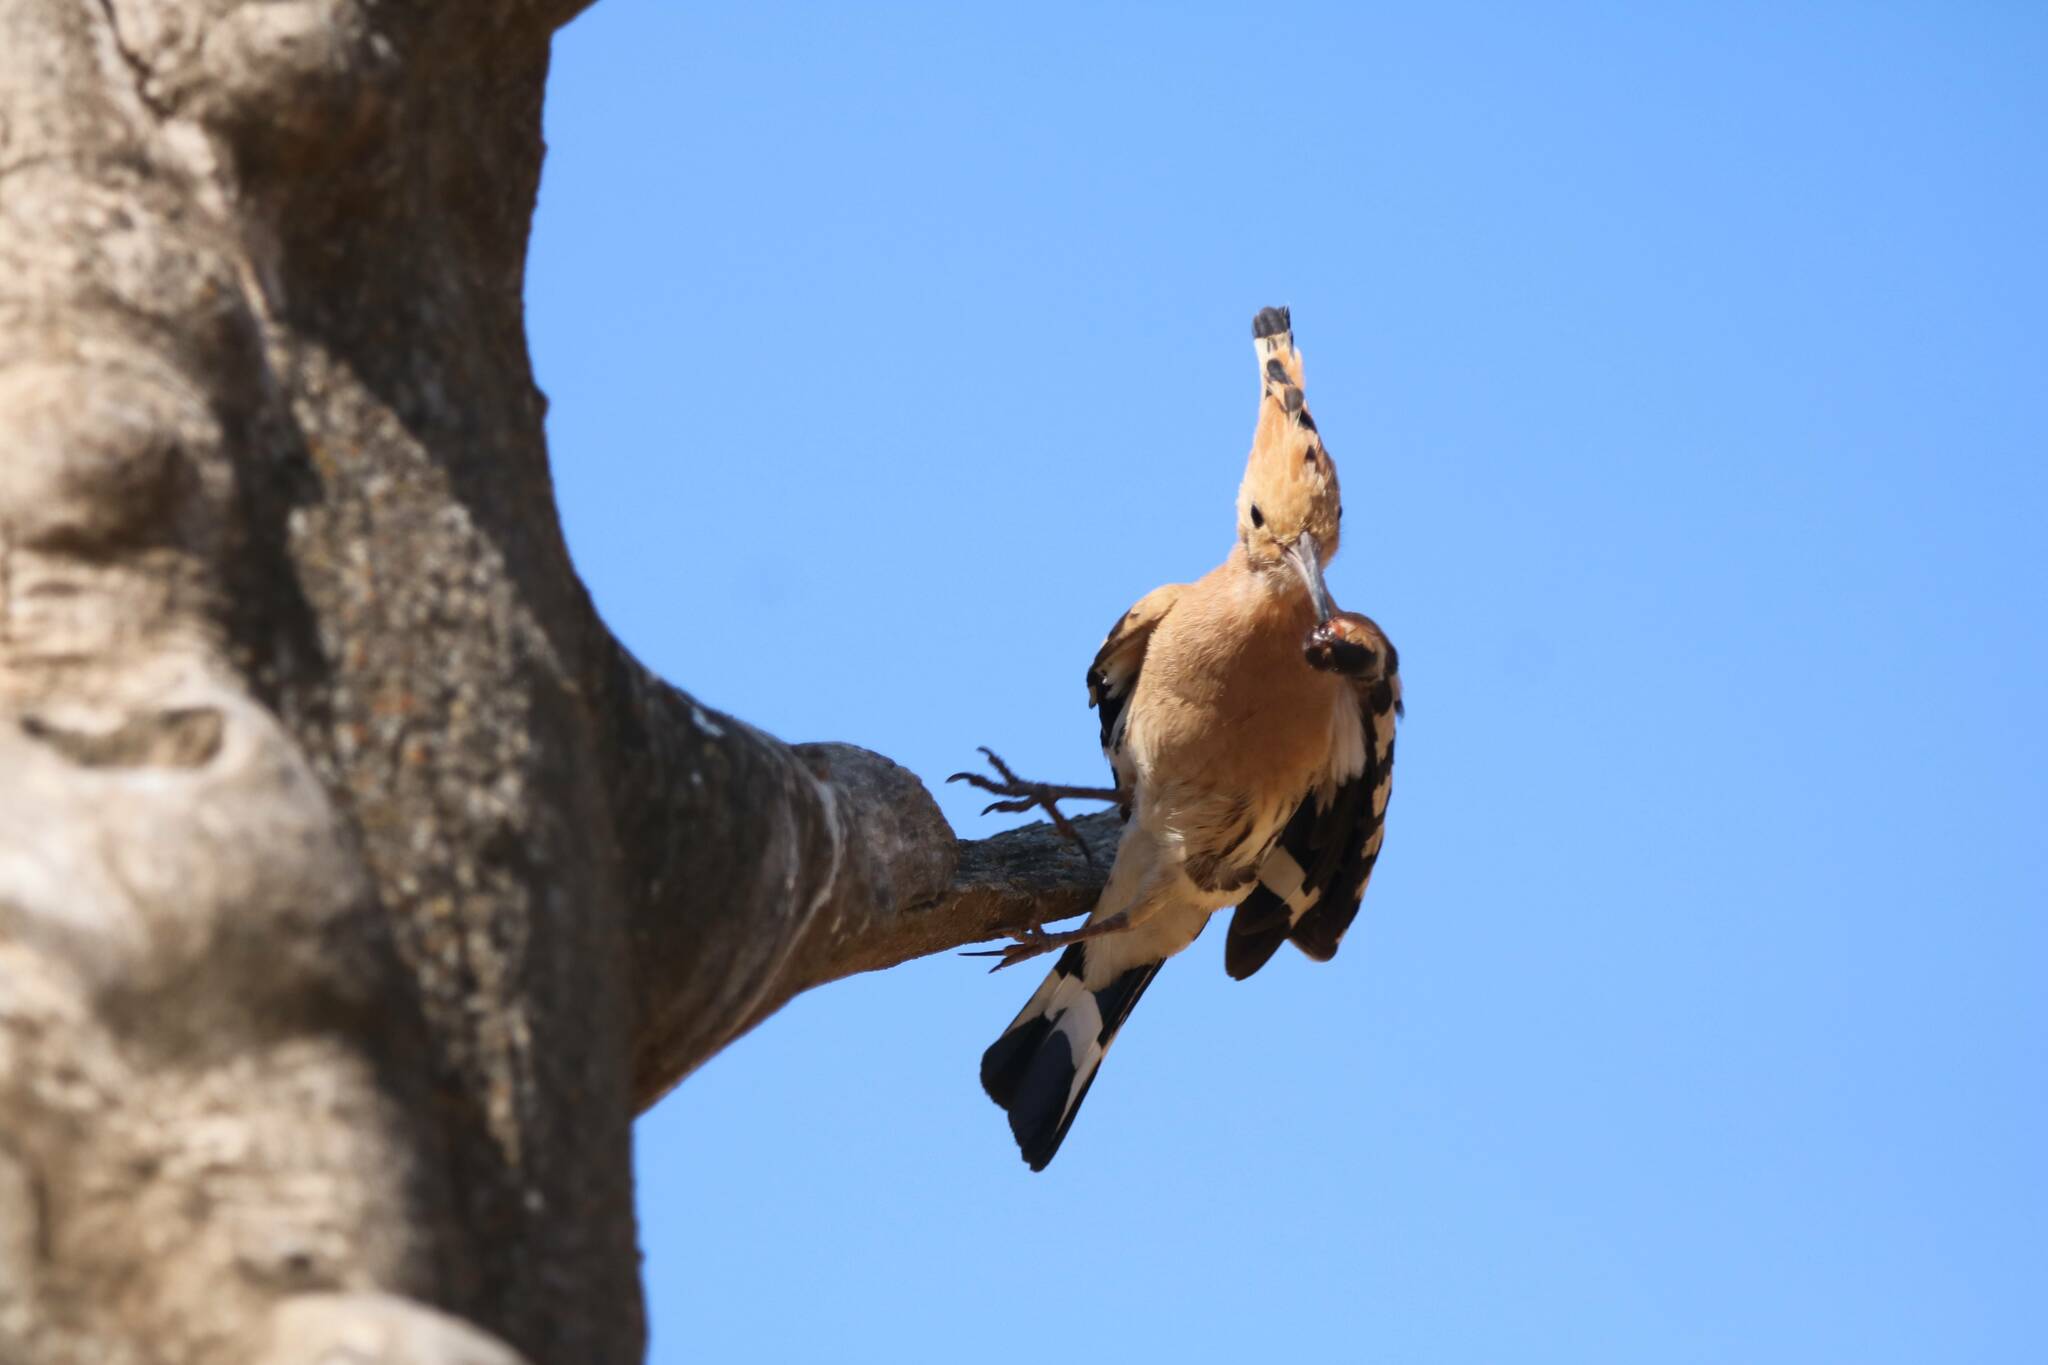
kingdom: Animalia
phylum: Chordata
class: Aves
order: Bucerotiformes
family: Upupidae
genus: Upupa
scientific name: Upupa epops
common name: Eurasian hoopoe
